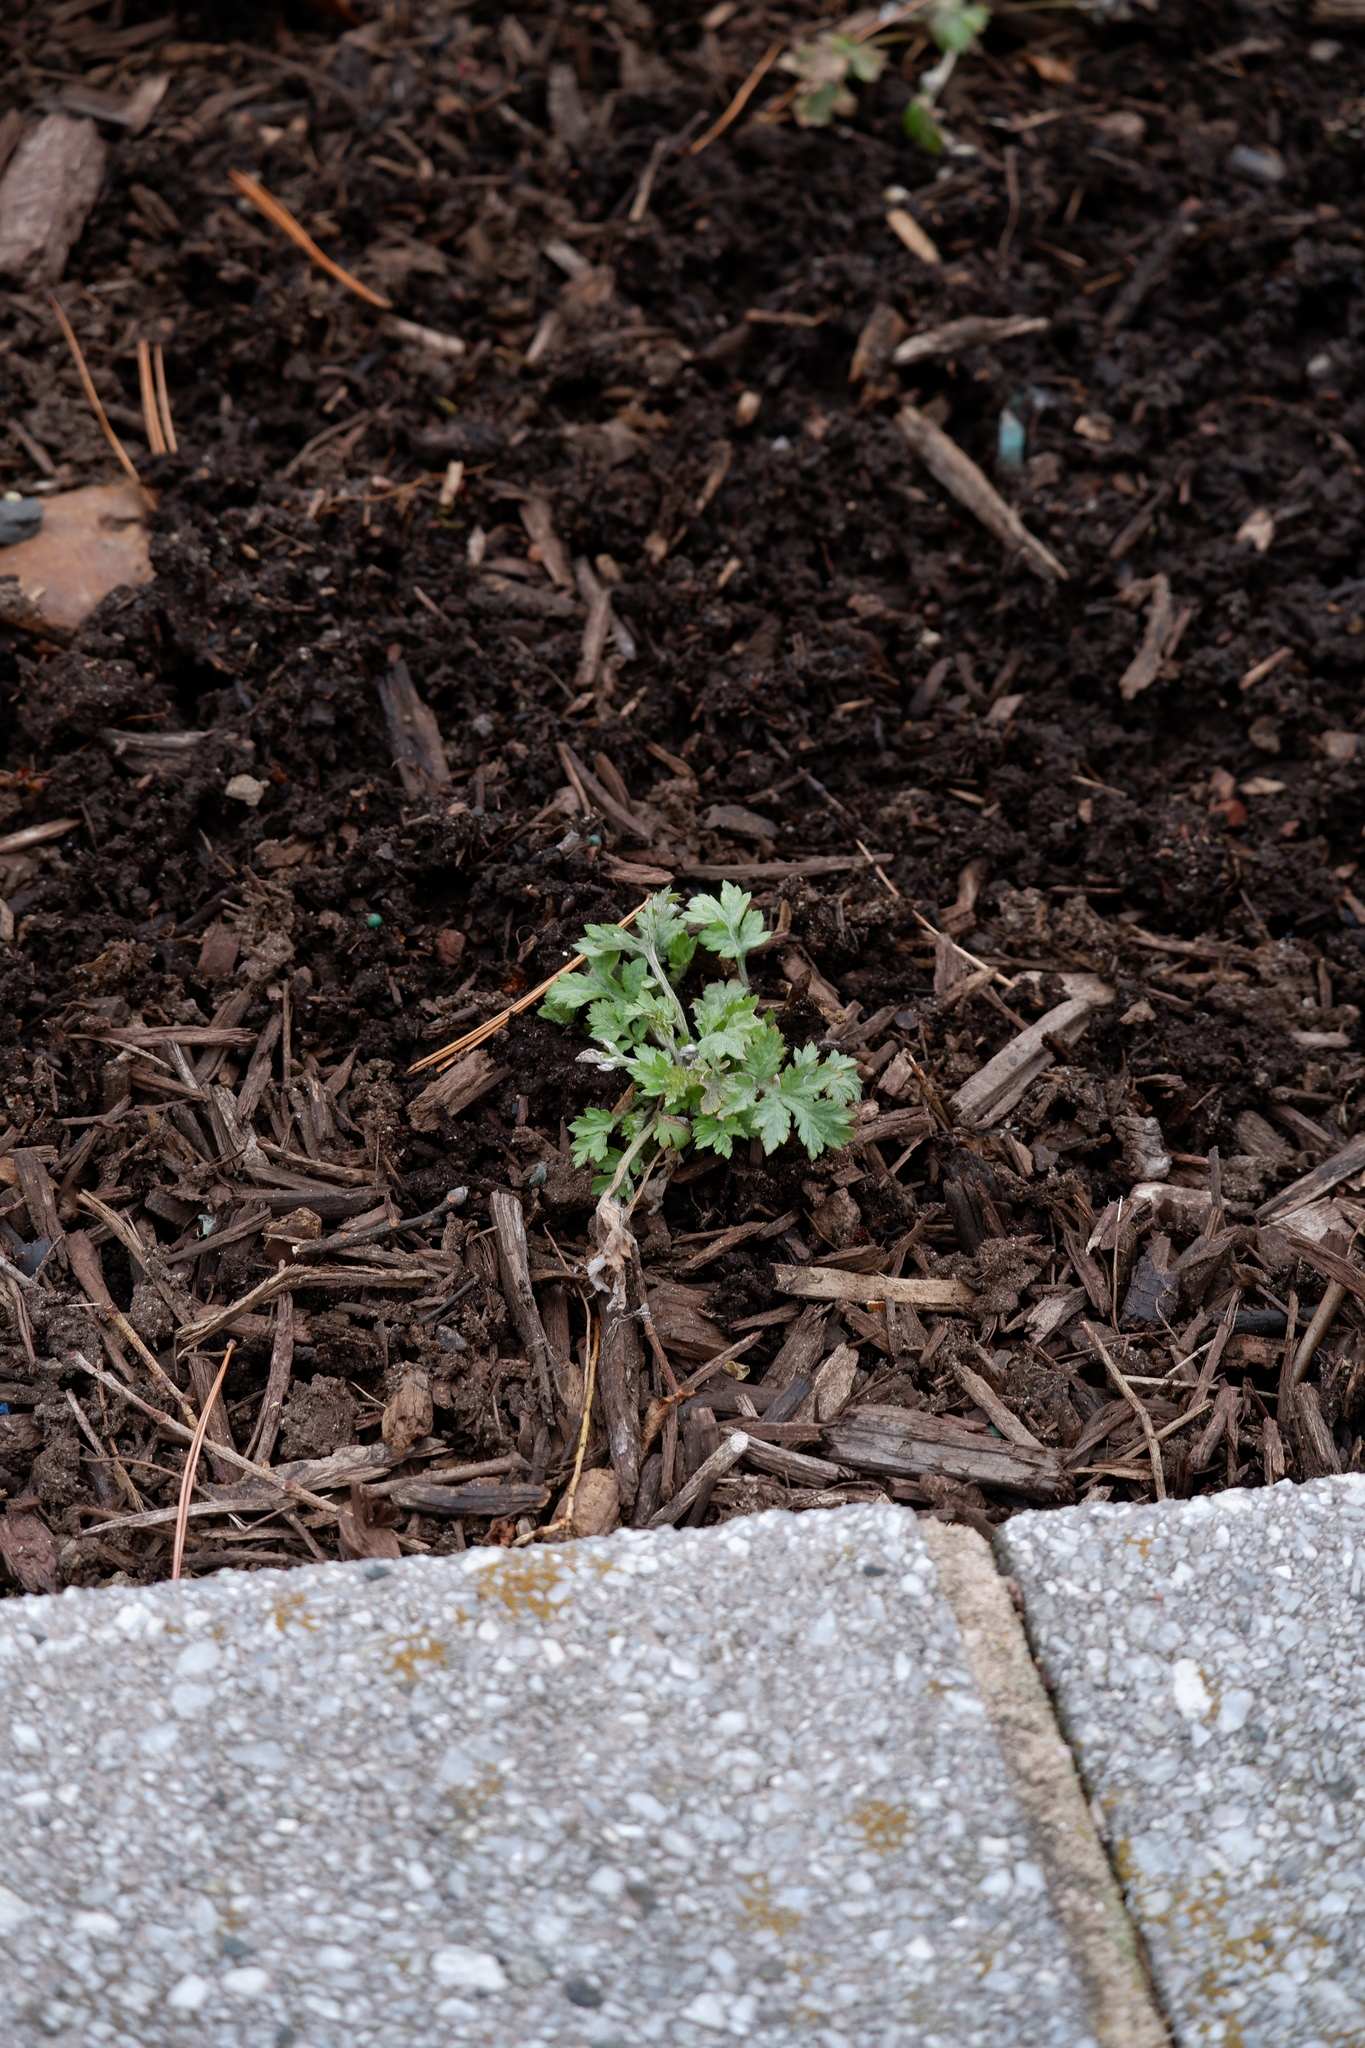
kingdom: Plantae
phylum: Tracheophyta
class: Magnoliopsida
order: Asterales
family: Asteraceae
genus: Artemisia
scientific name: Artemisia vulgaris
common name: Mugwort
